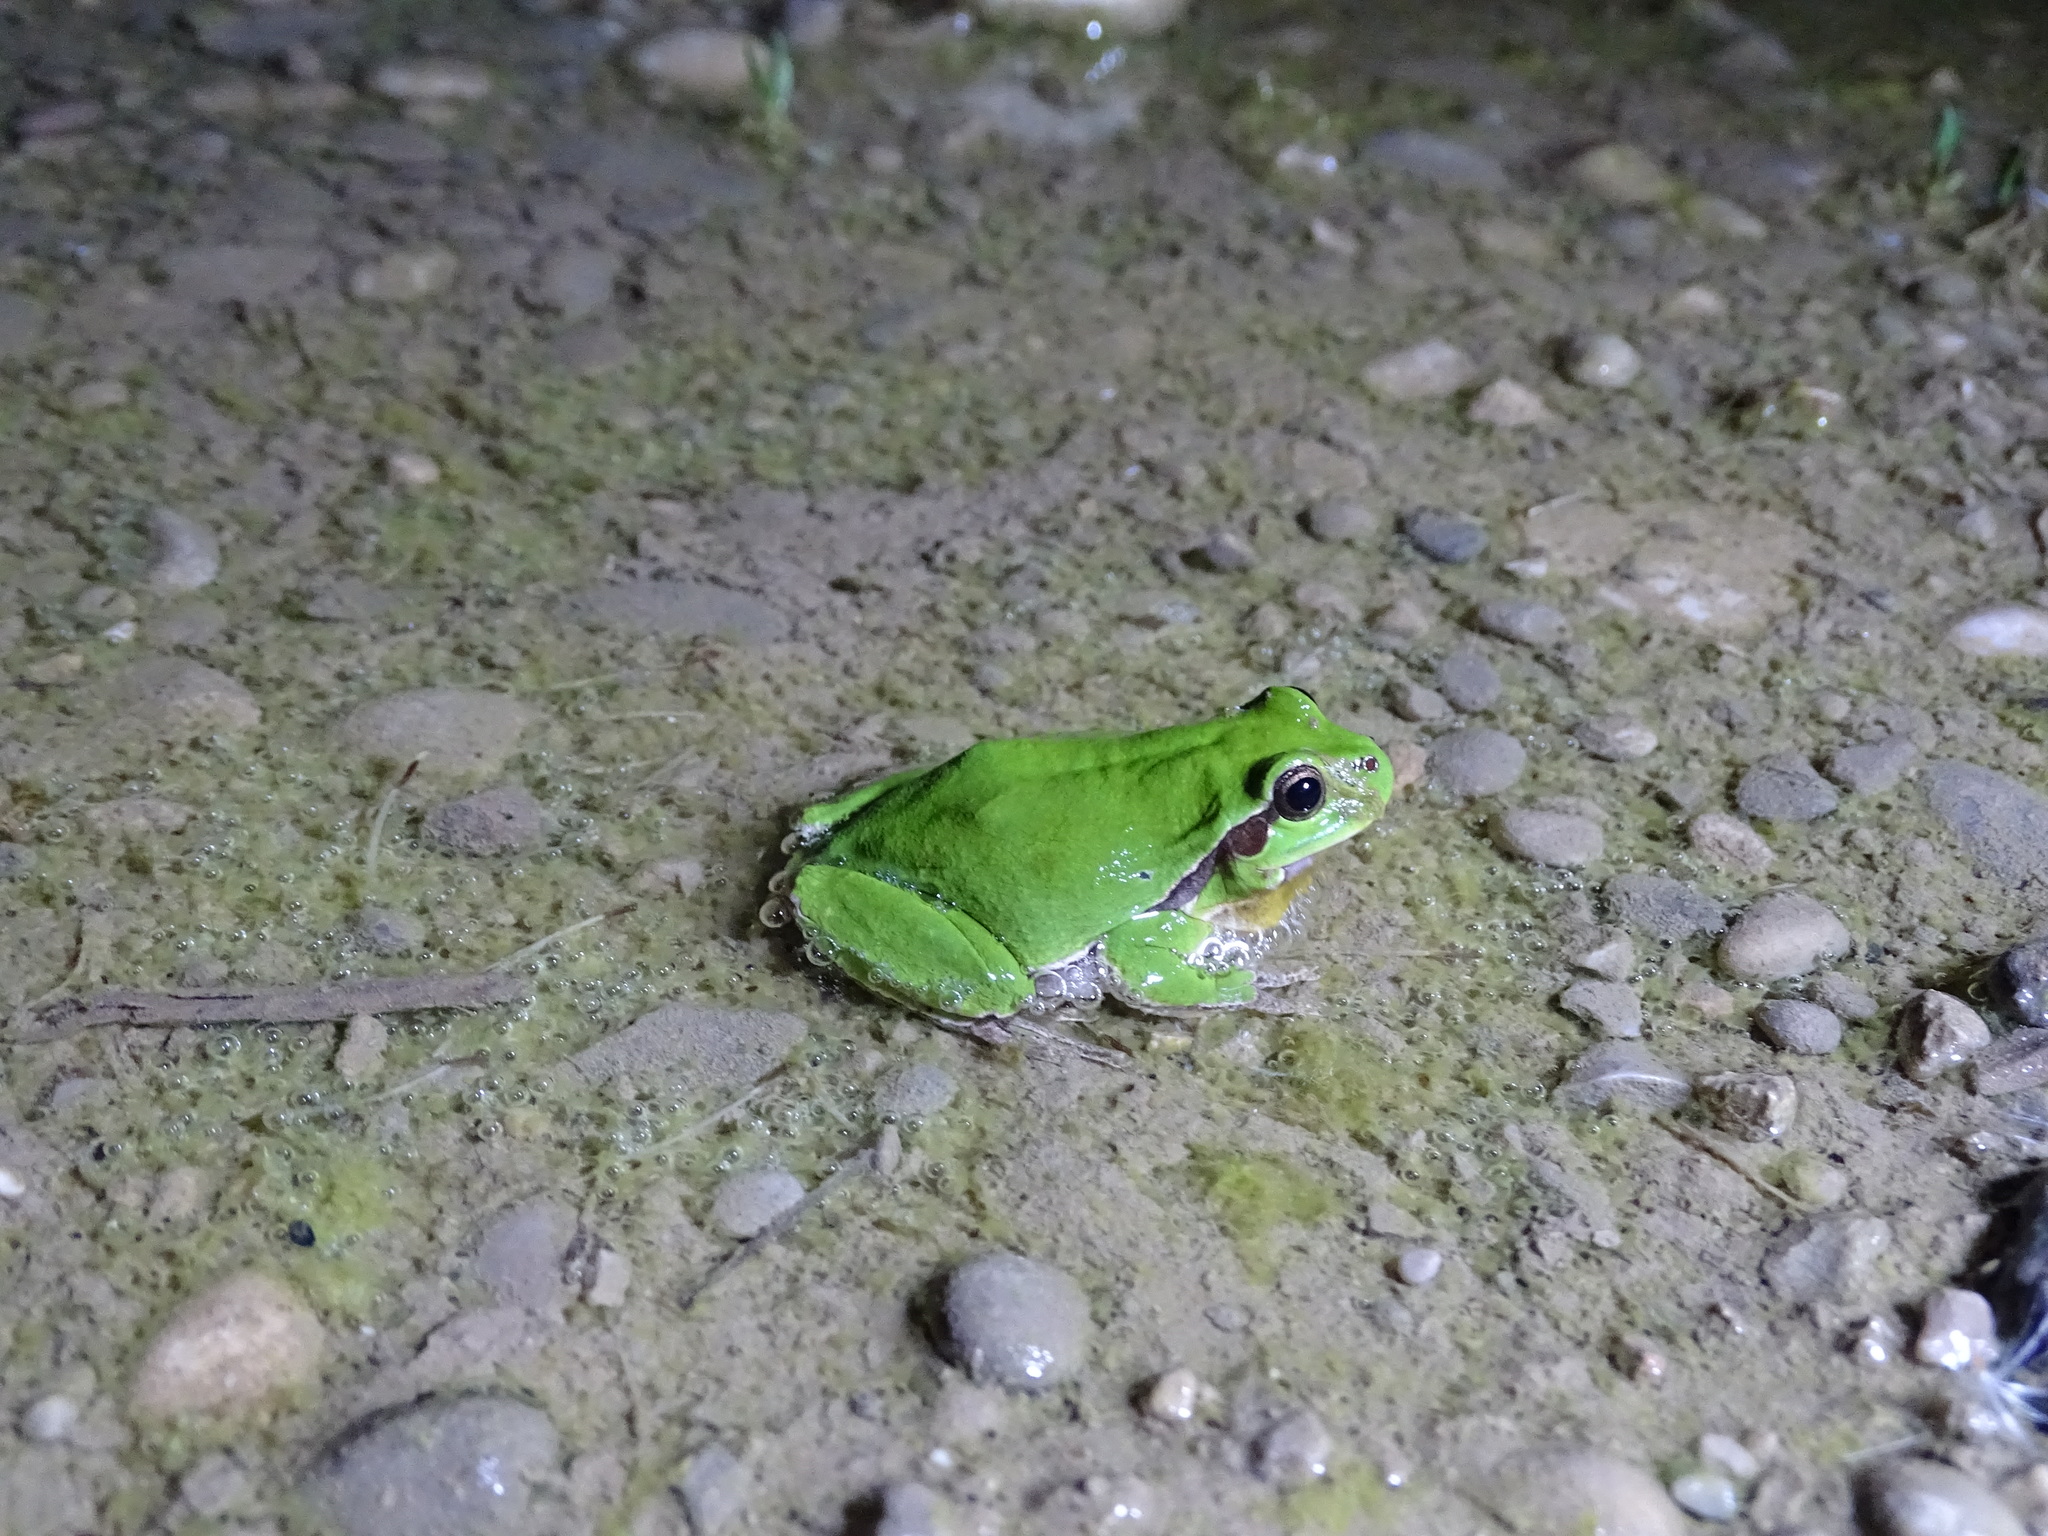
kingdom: Animalia
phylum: Chordata
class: Amphibia
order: Anura
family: Hylidae
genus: Hyla
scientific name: Hyla arborea
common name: Common tree frog
